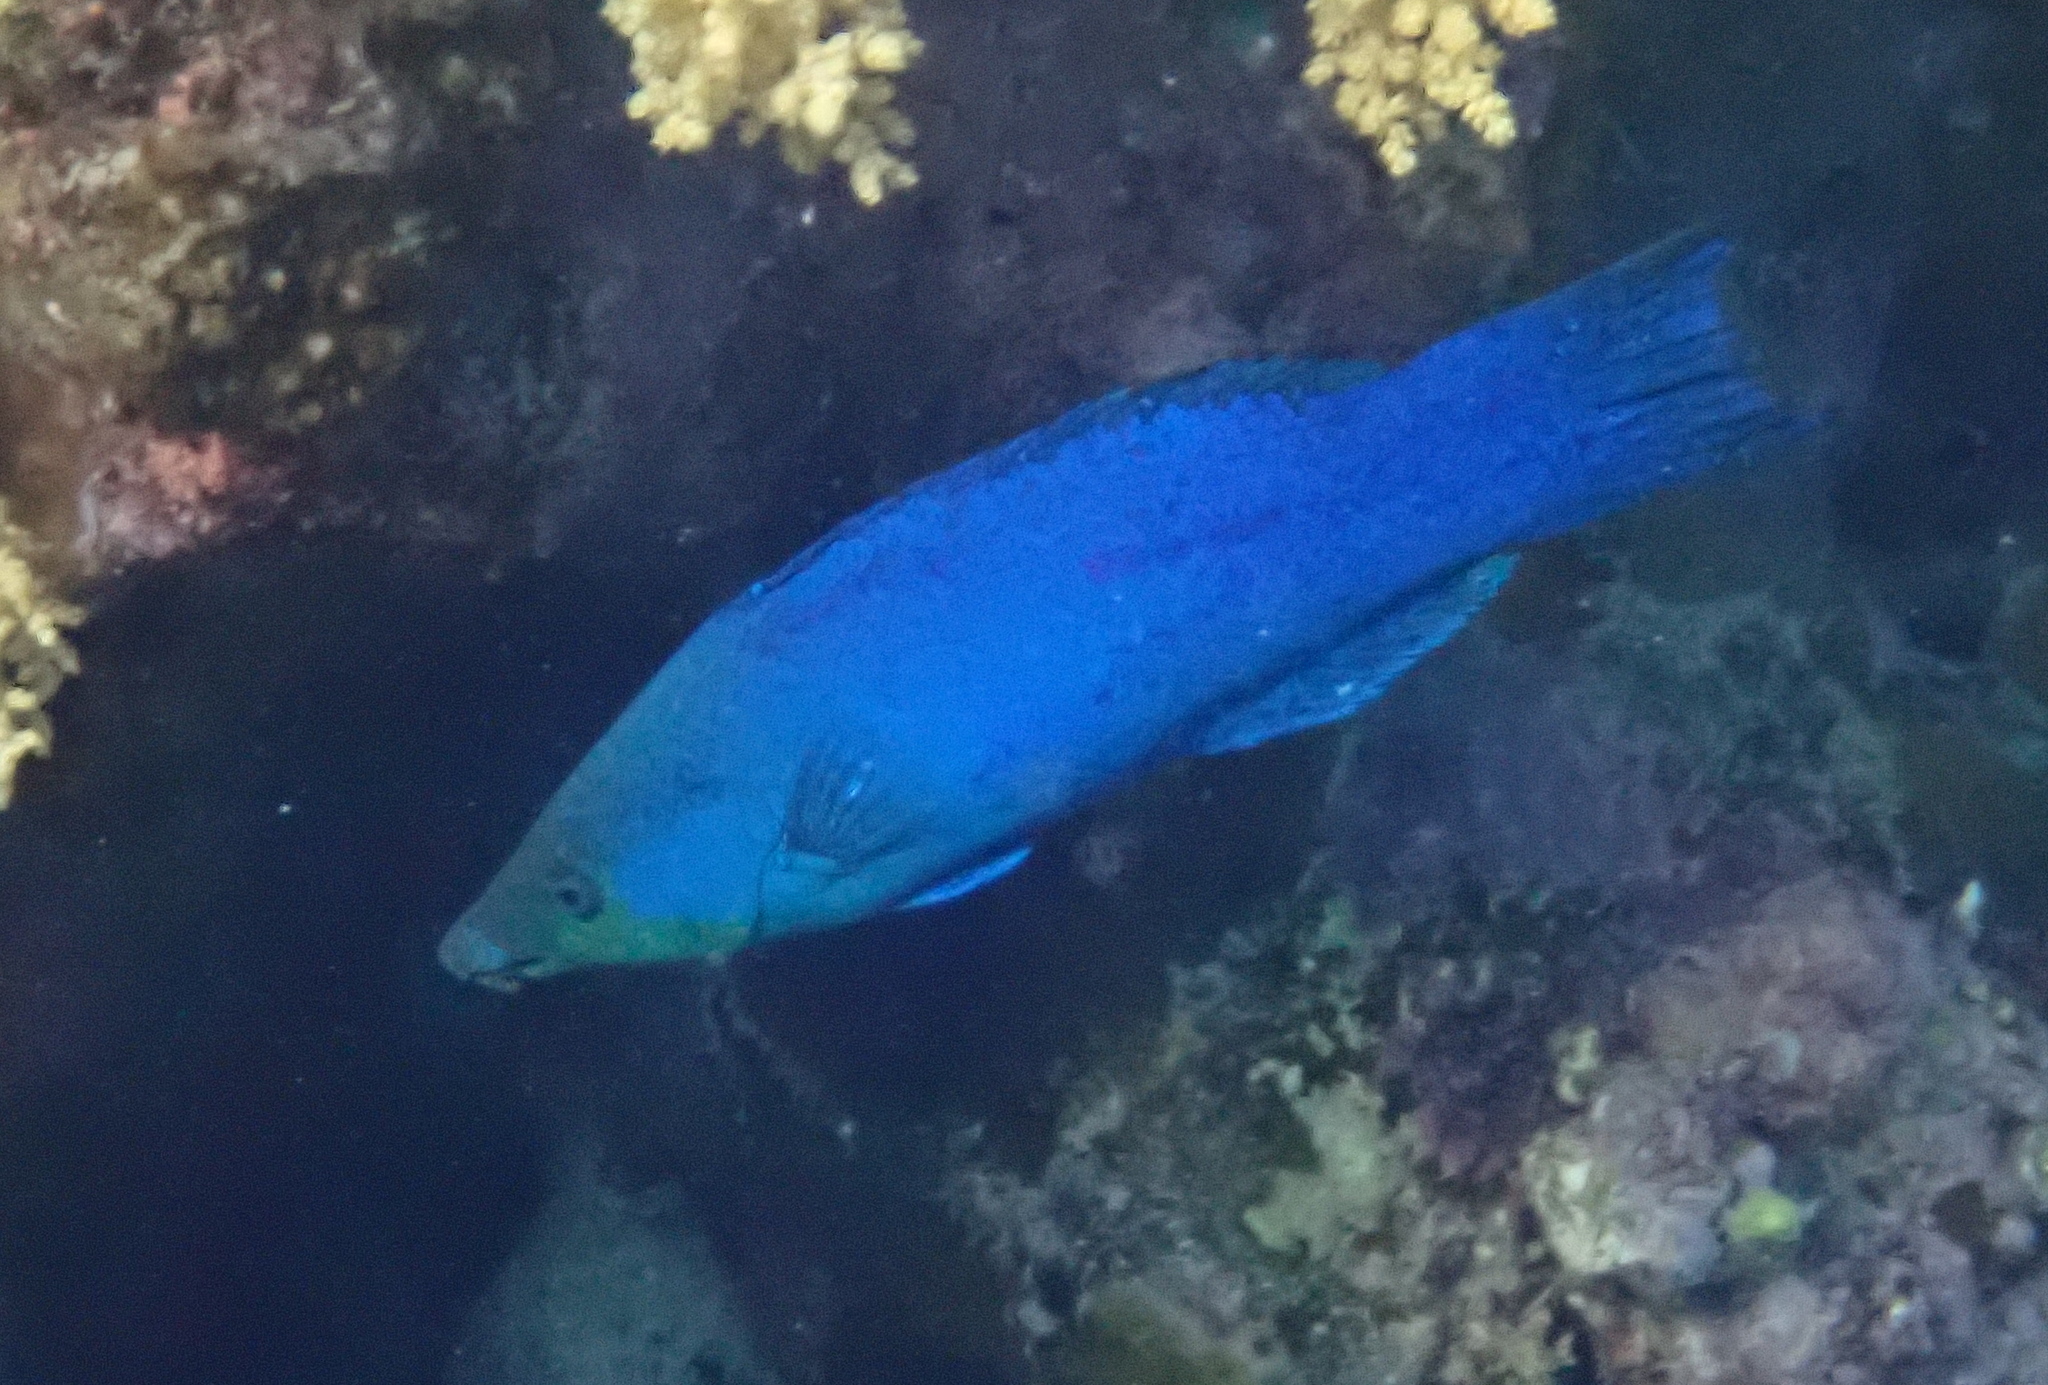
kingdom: Animalia
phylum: Chordata
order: Perciformes
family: Labridae
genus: Larabicus
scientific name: Larabicus quadrilineatus
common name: Fourline wrasse
